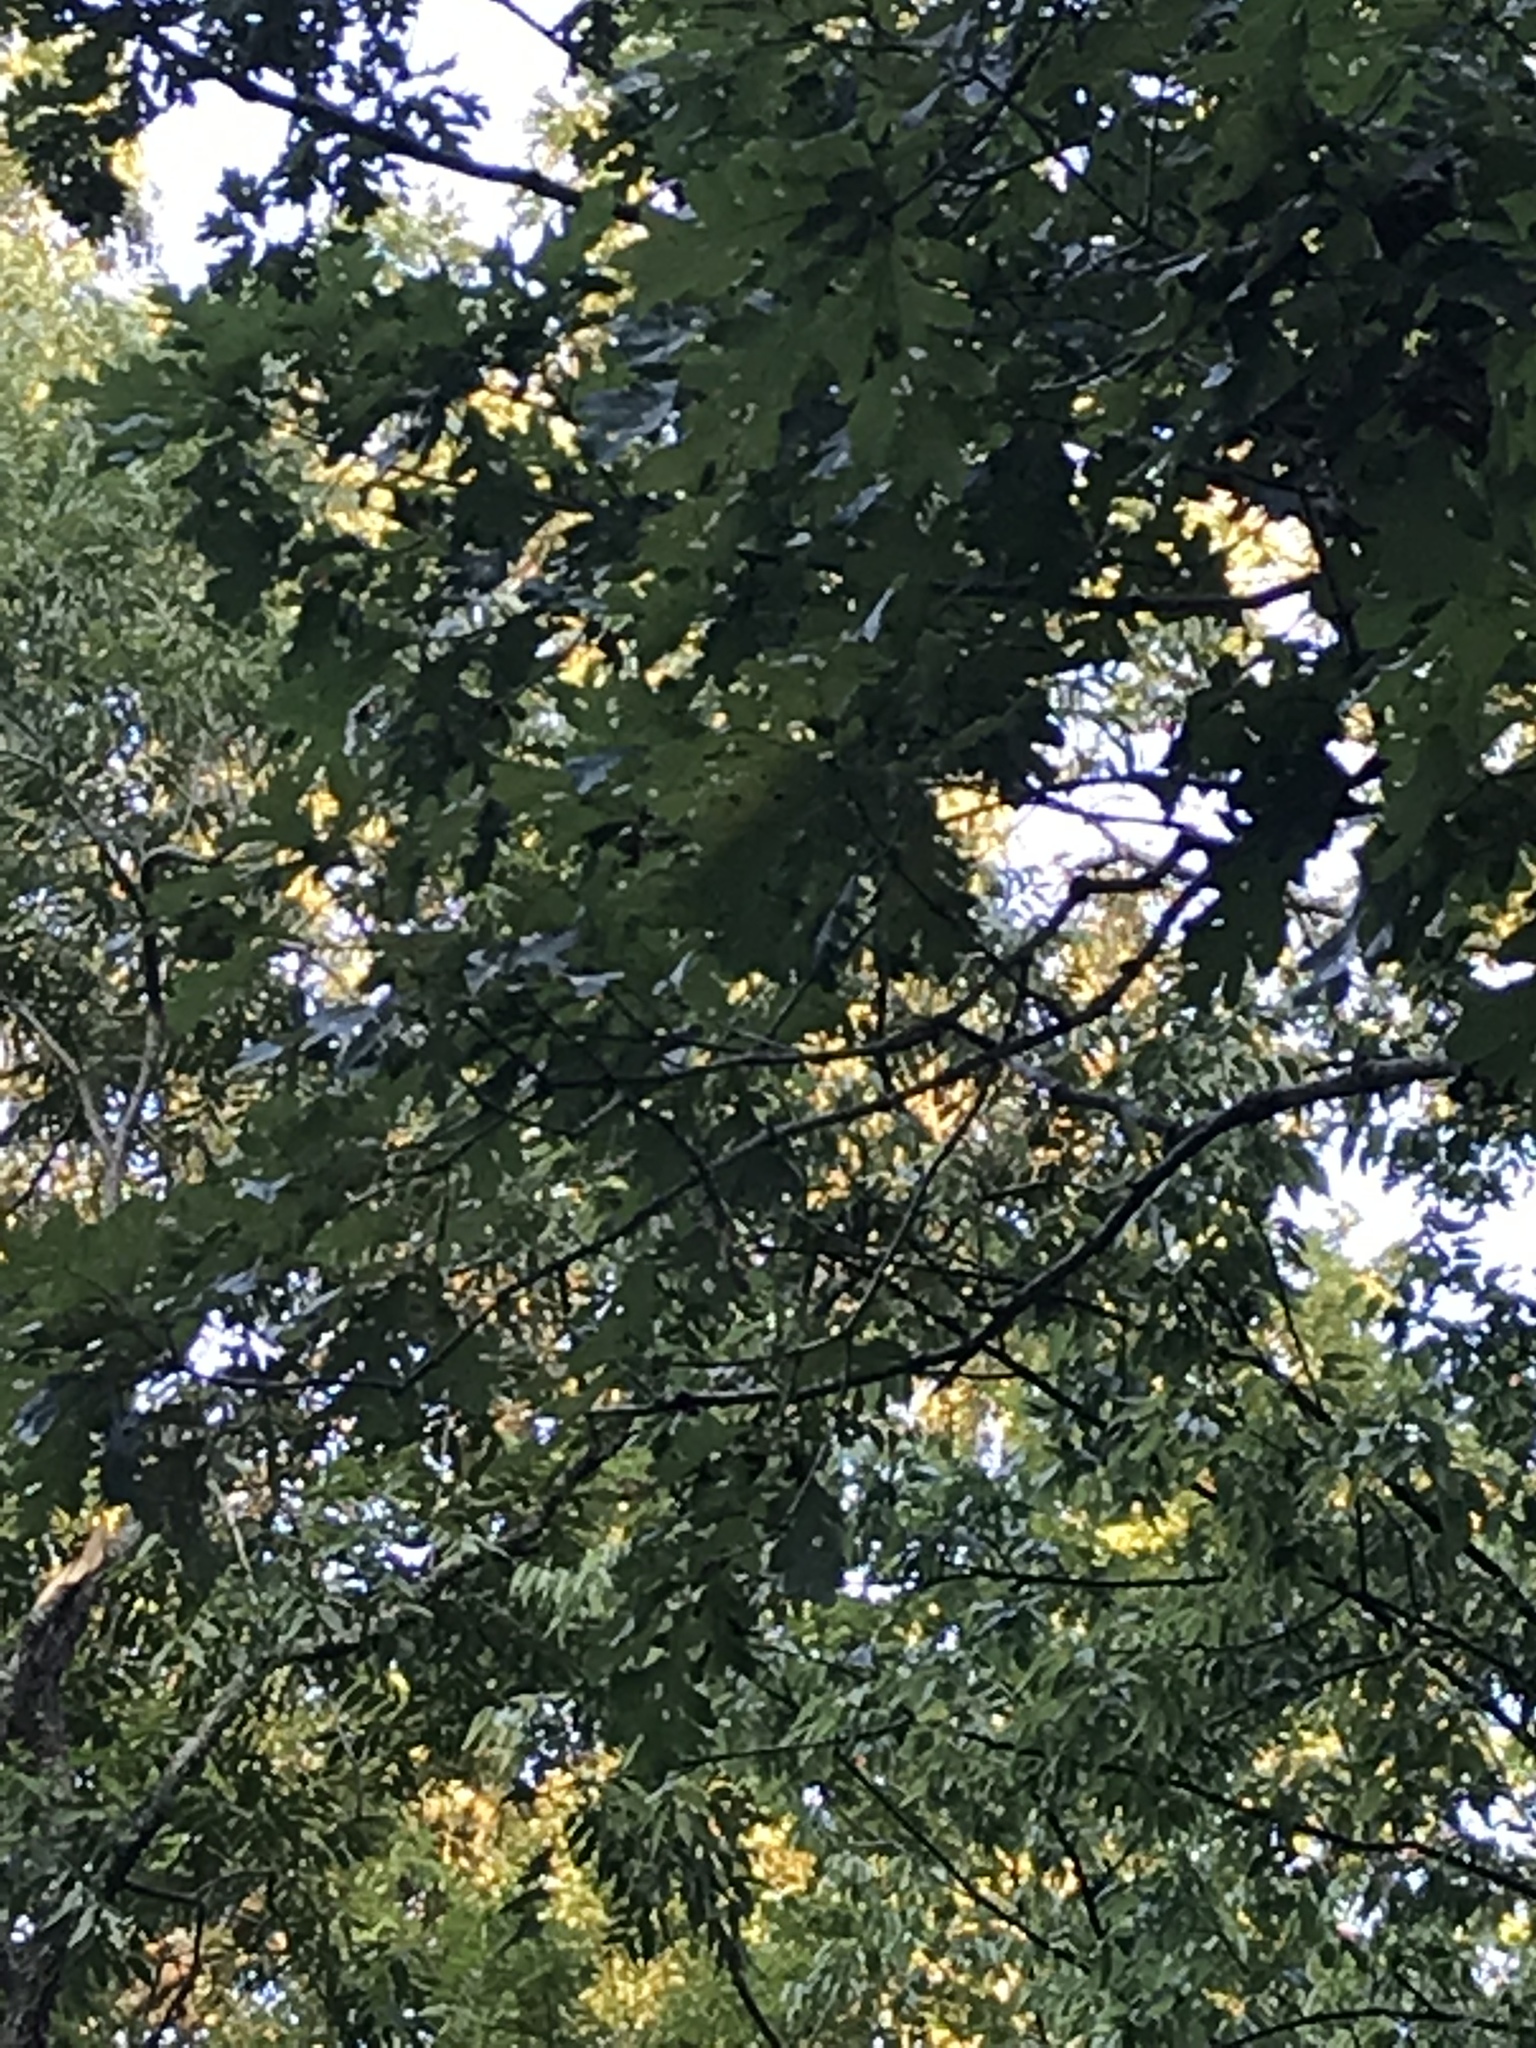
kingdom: Plantae
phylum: Tracheophyta
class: Magnoliopsida
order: Fagales
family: Fagaceae
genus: Quercus
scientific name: Quercus alba
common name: White oak
